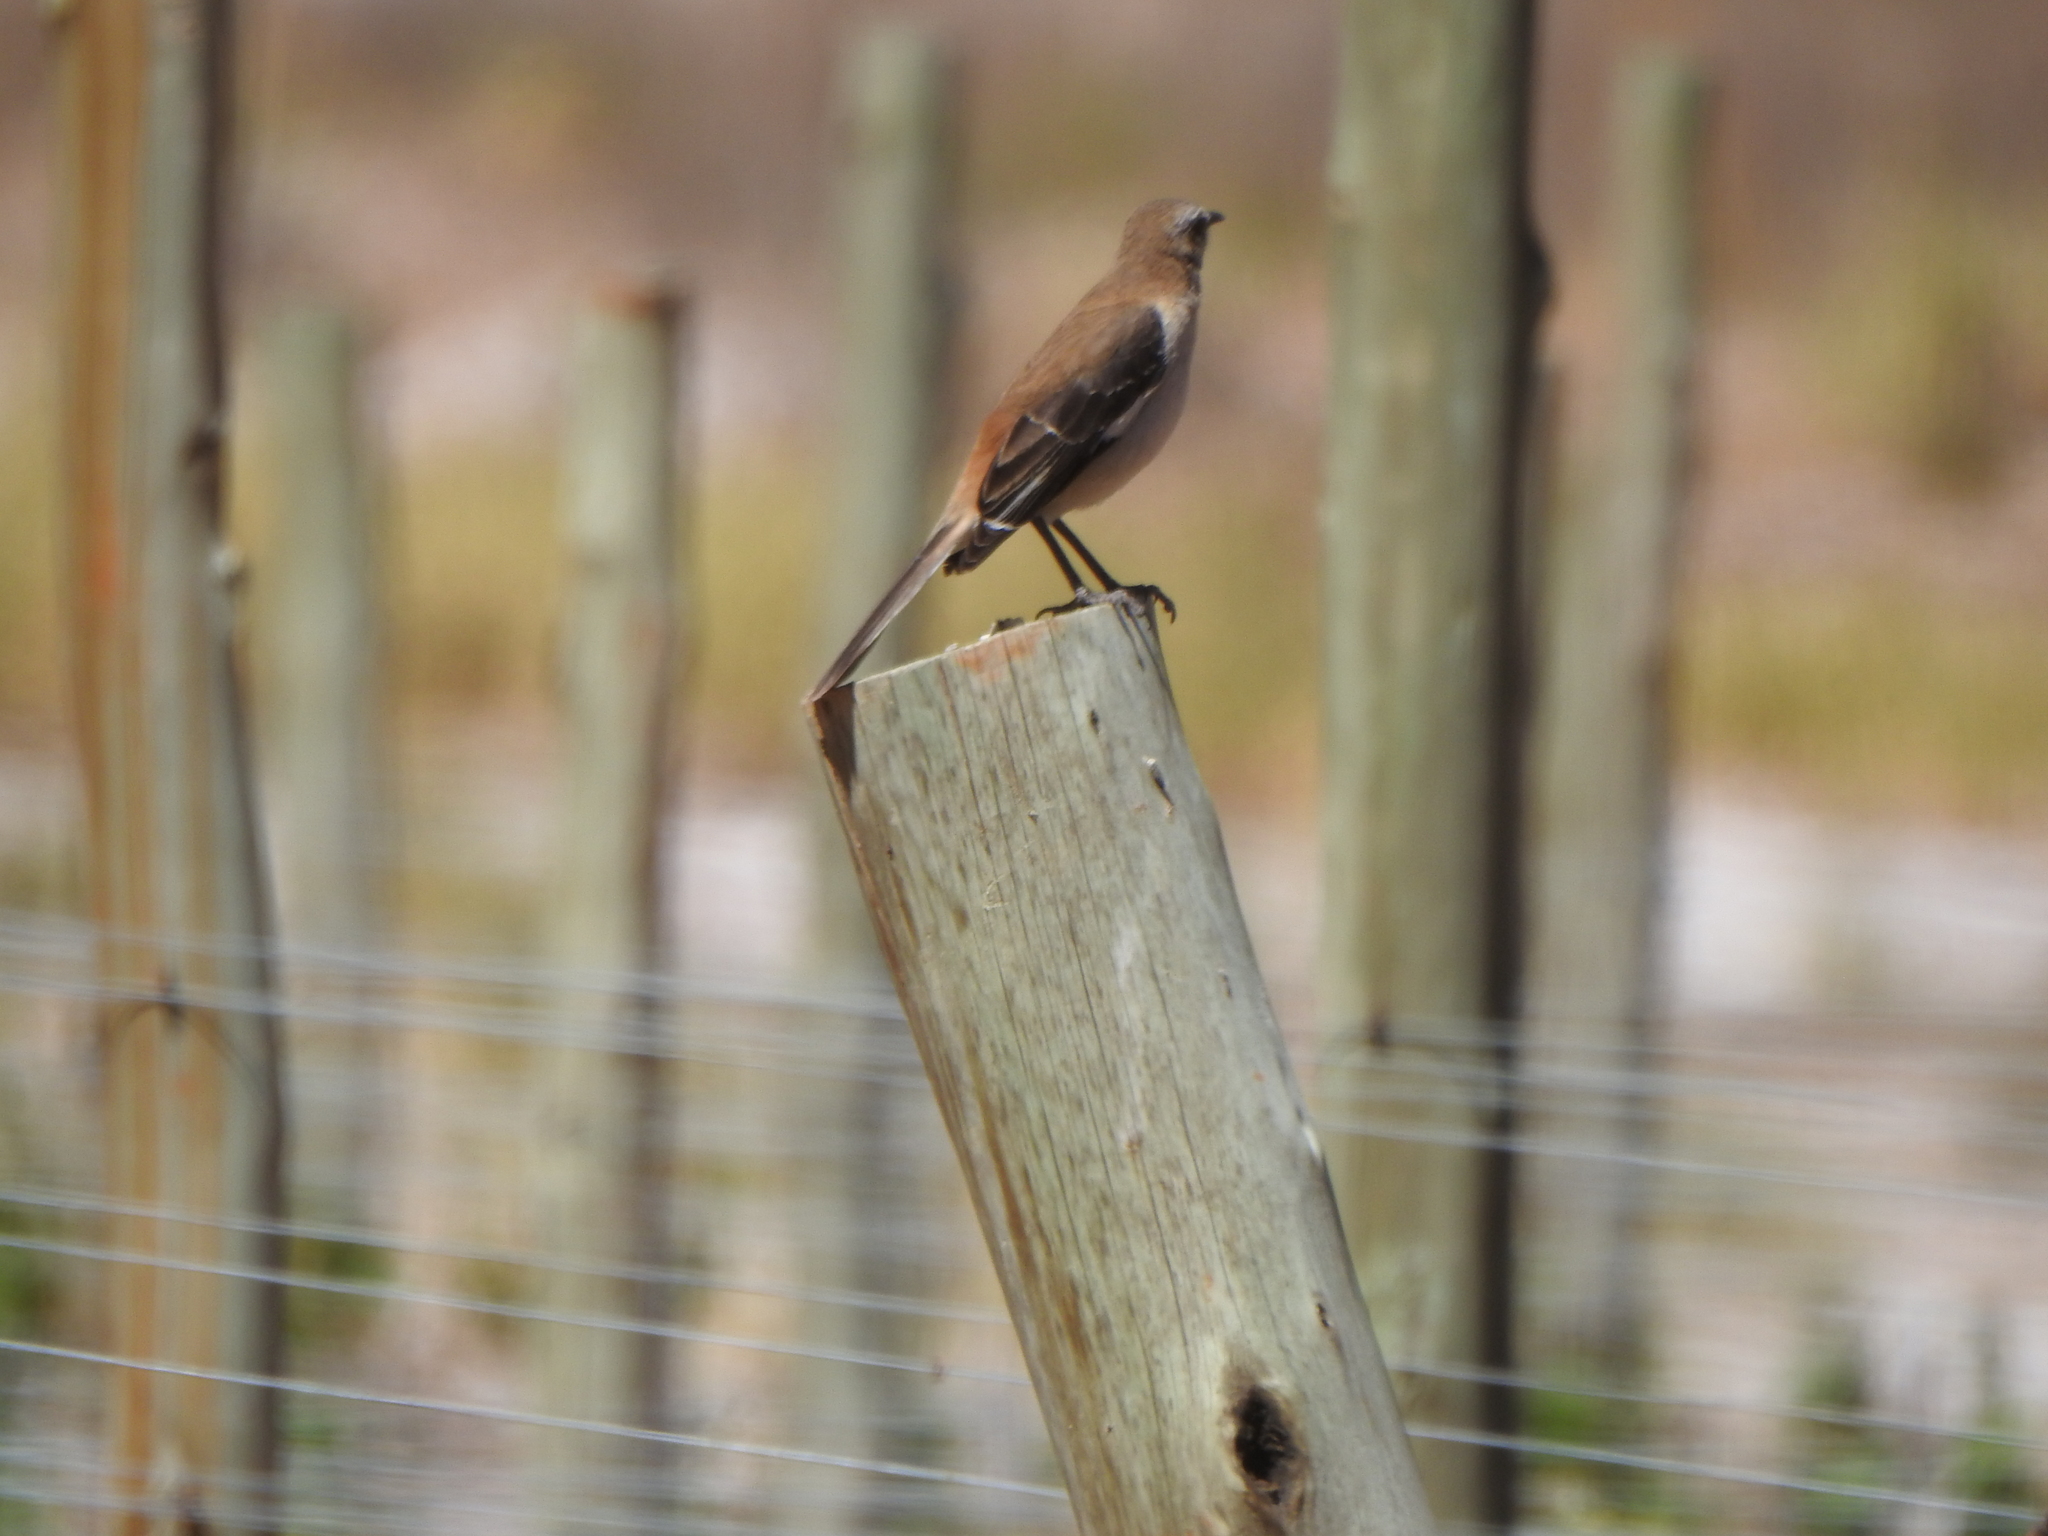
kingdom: Animalia
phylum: Chordata
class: Aves
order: Passeriformes
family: Mimidae
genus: Mimus
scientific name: Mimus dorsalis
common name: Brown-backed mockingbird
